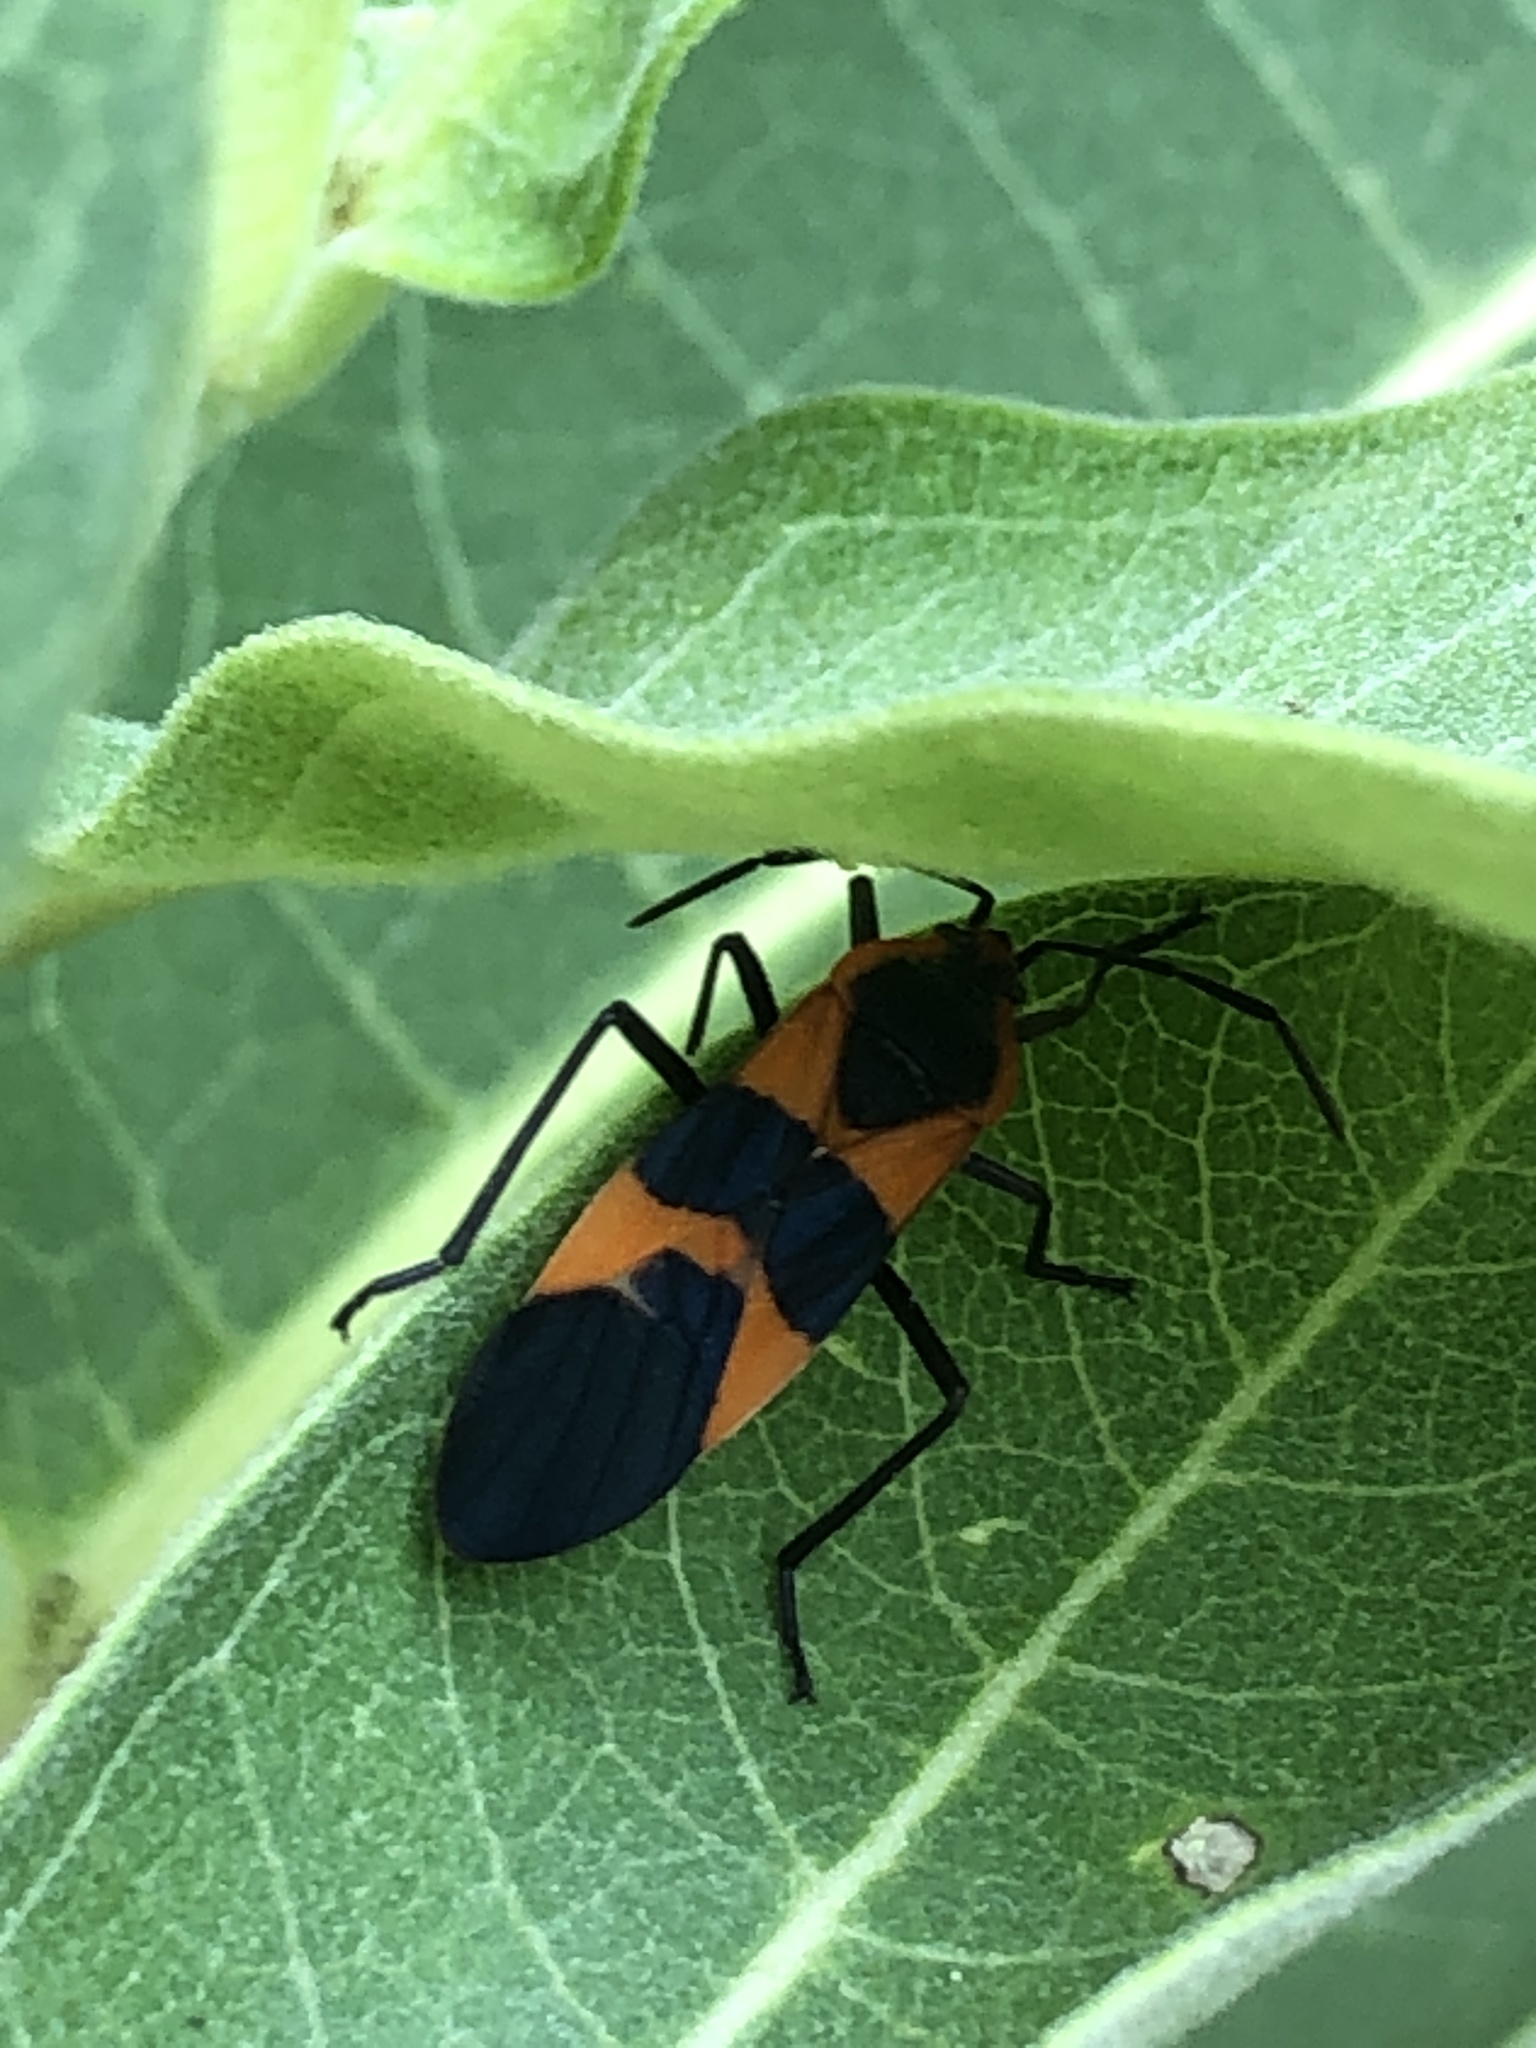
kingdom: Animalia
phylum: Arthropoda
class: Insecta
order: Hemiptera
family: Lygaeidae
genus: Oncopeltus
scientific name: Oncopeltus fasciatus
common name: Large milkweed bug
